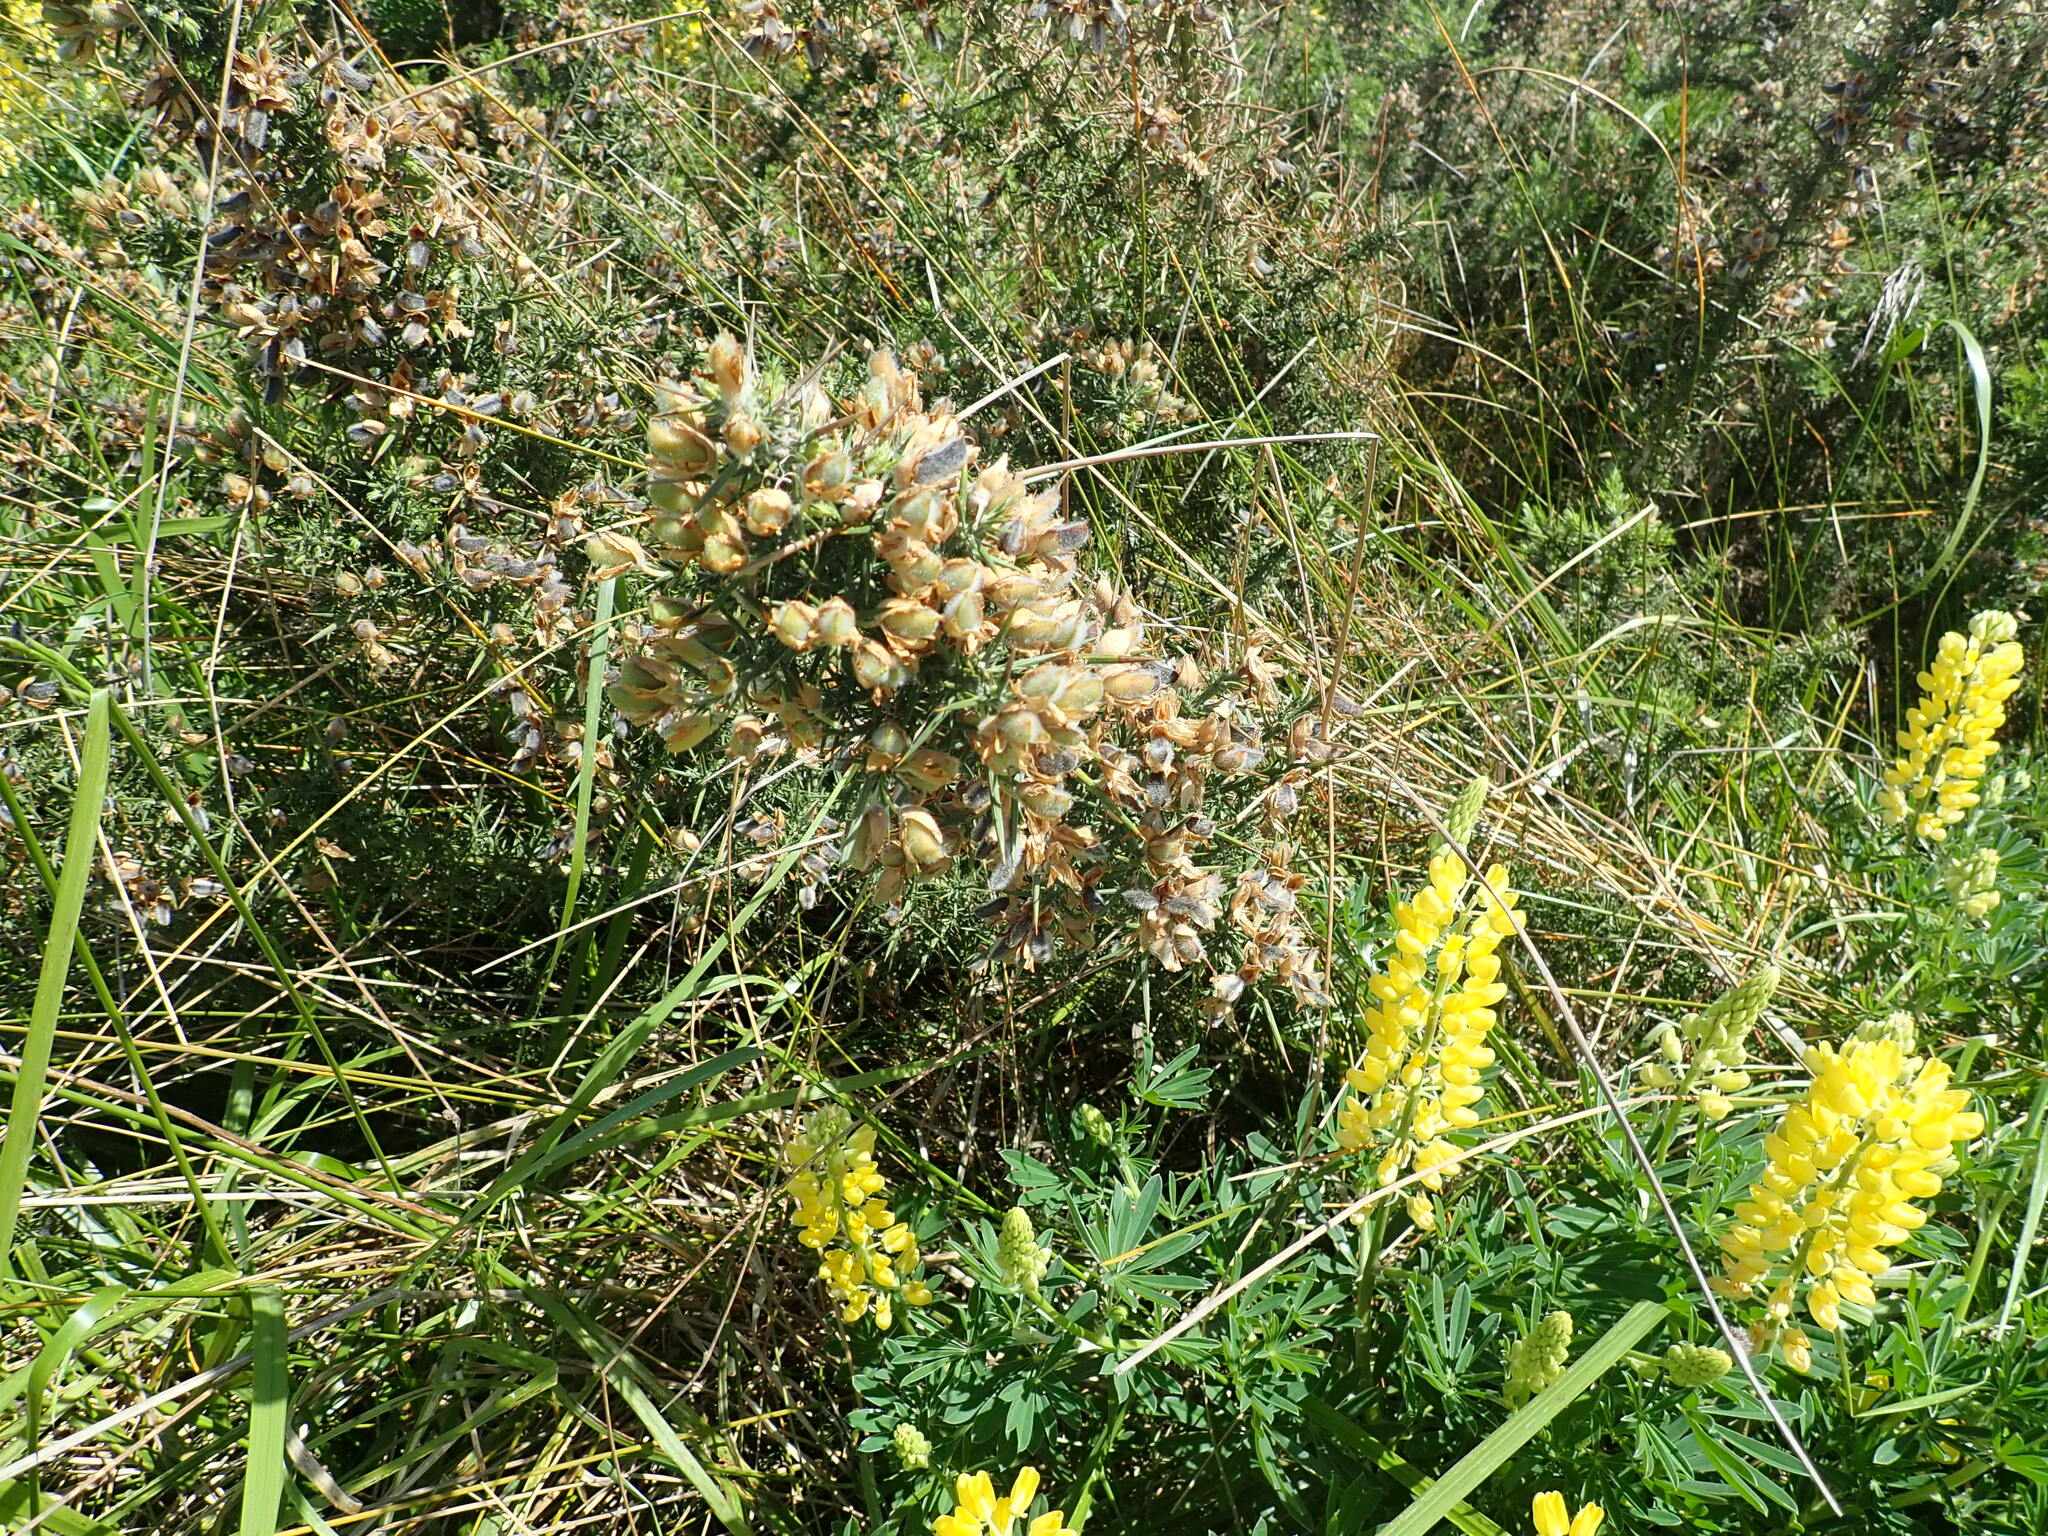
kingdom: Plantae
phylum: Tracheophyta
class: Magnoliopsida
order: Fabales
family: Fabaceae
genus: Ulex
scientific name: Ulex europaeus
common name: Common gorse
